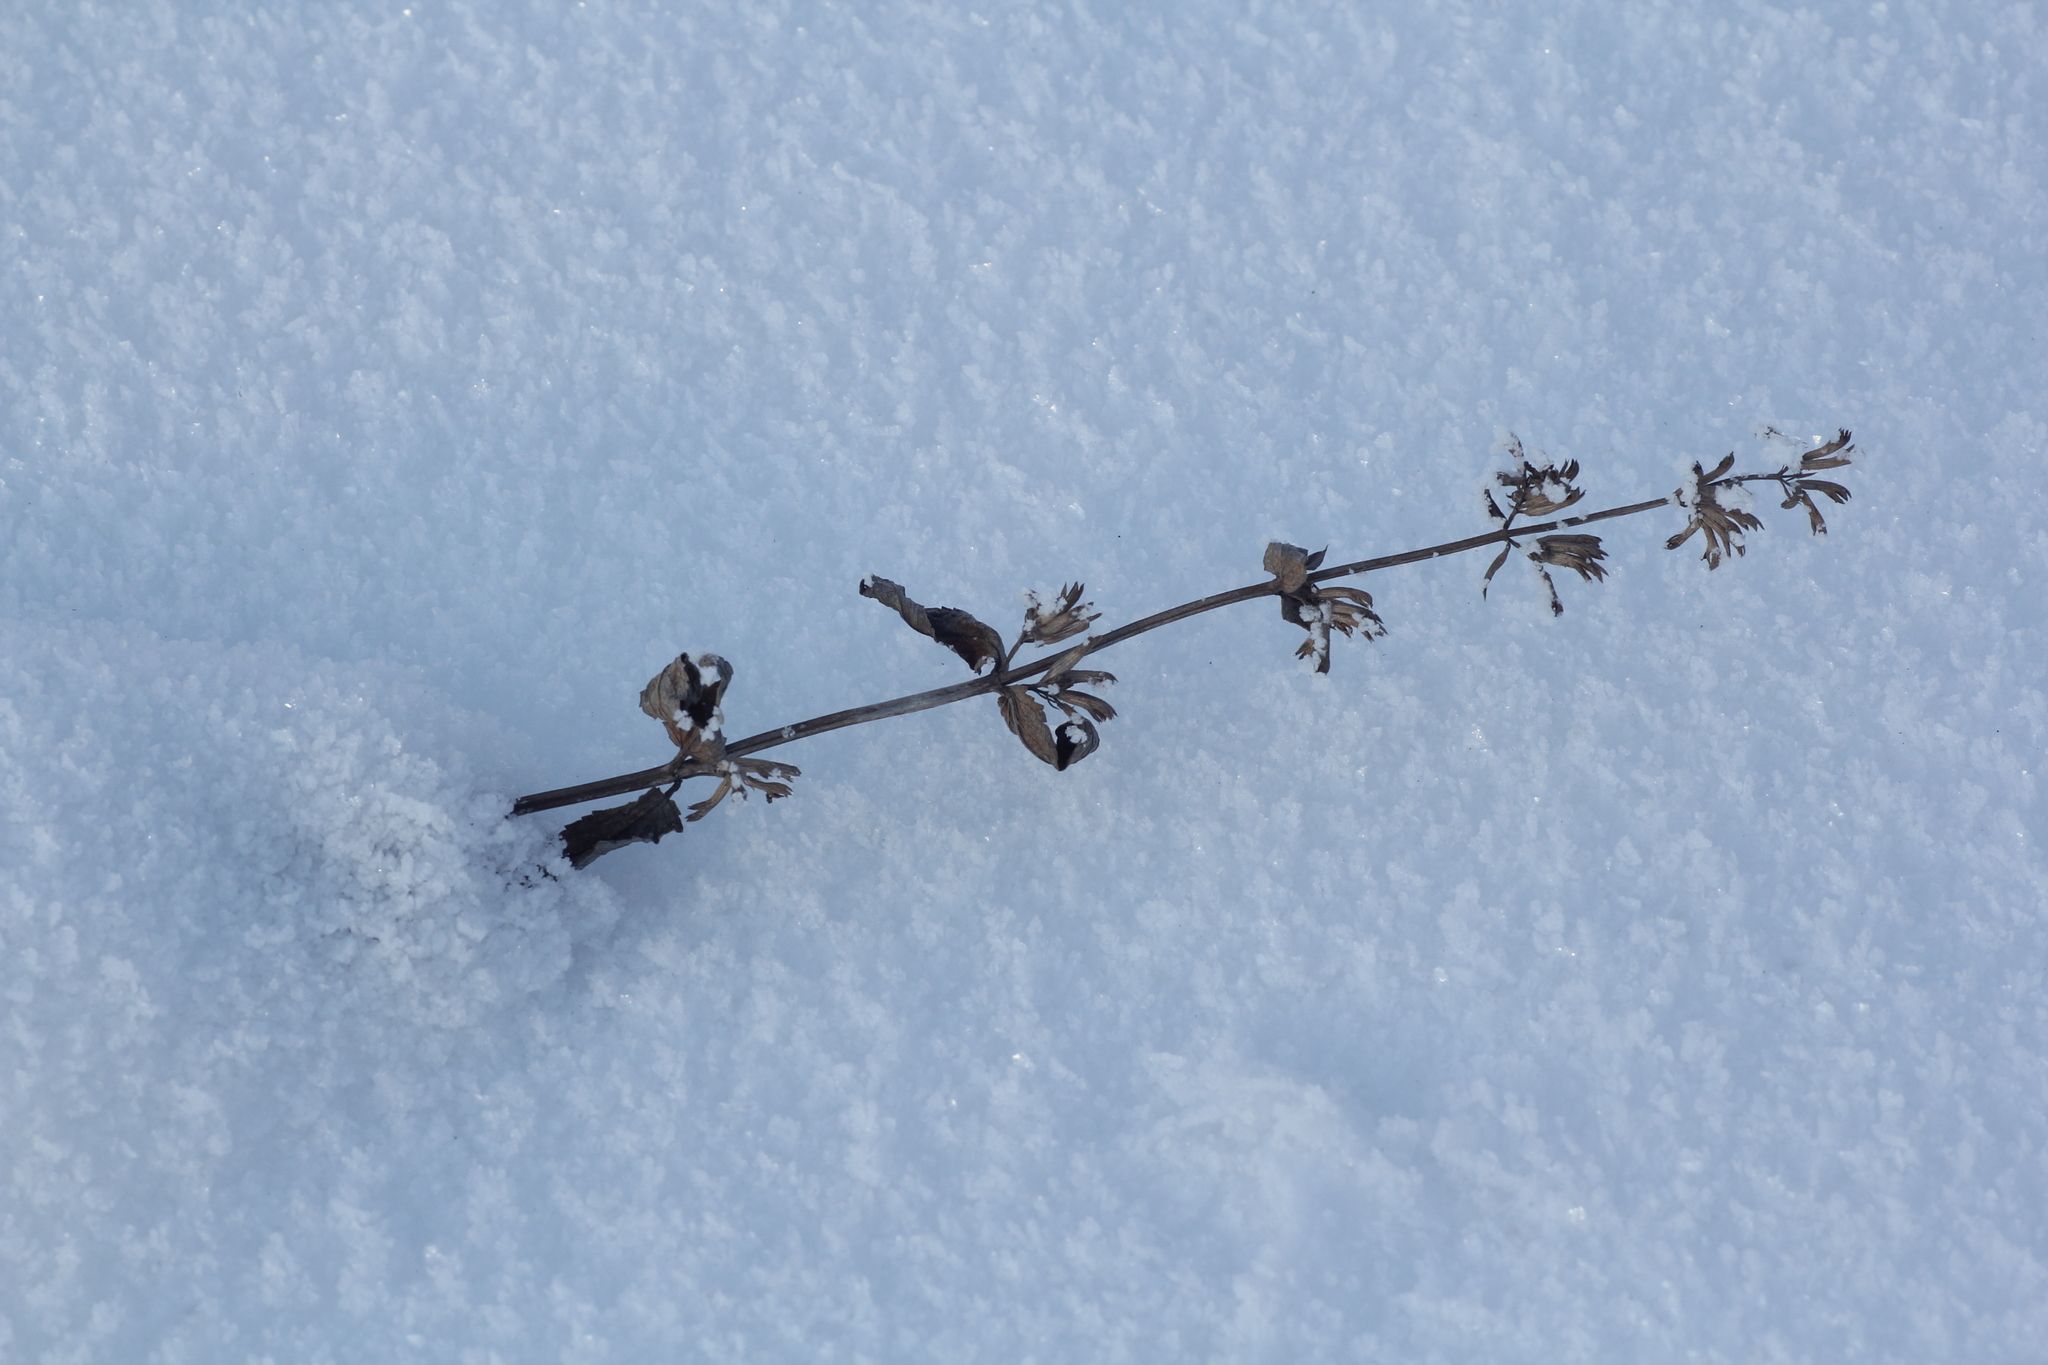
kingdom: Plantae
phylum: Tracheophyta
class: Magnoliopsida
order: Lamiales
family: Lamiaceae
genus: Nepeta
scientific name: Nepeta sibirica
